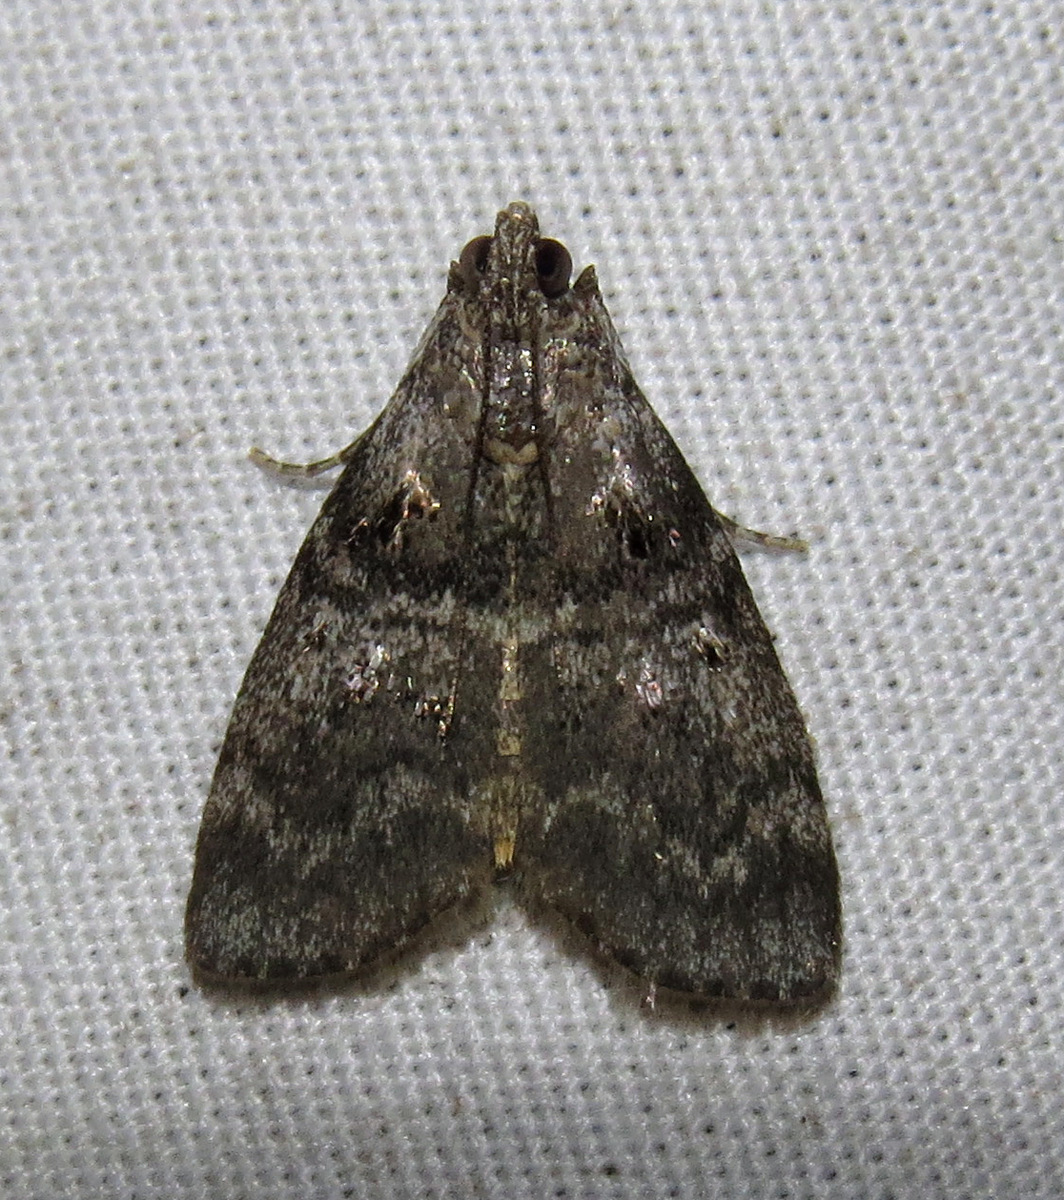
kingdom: Animalia
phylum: Arthropoda
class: Insecta
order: Lepidoptera
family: Pyralidae
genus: Pococera
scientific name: Pococera asperatella
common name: Maple webworm moth
